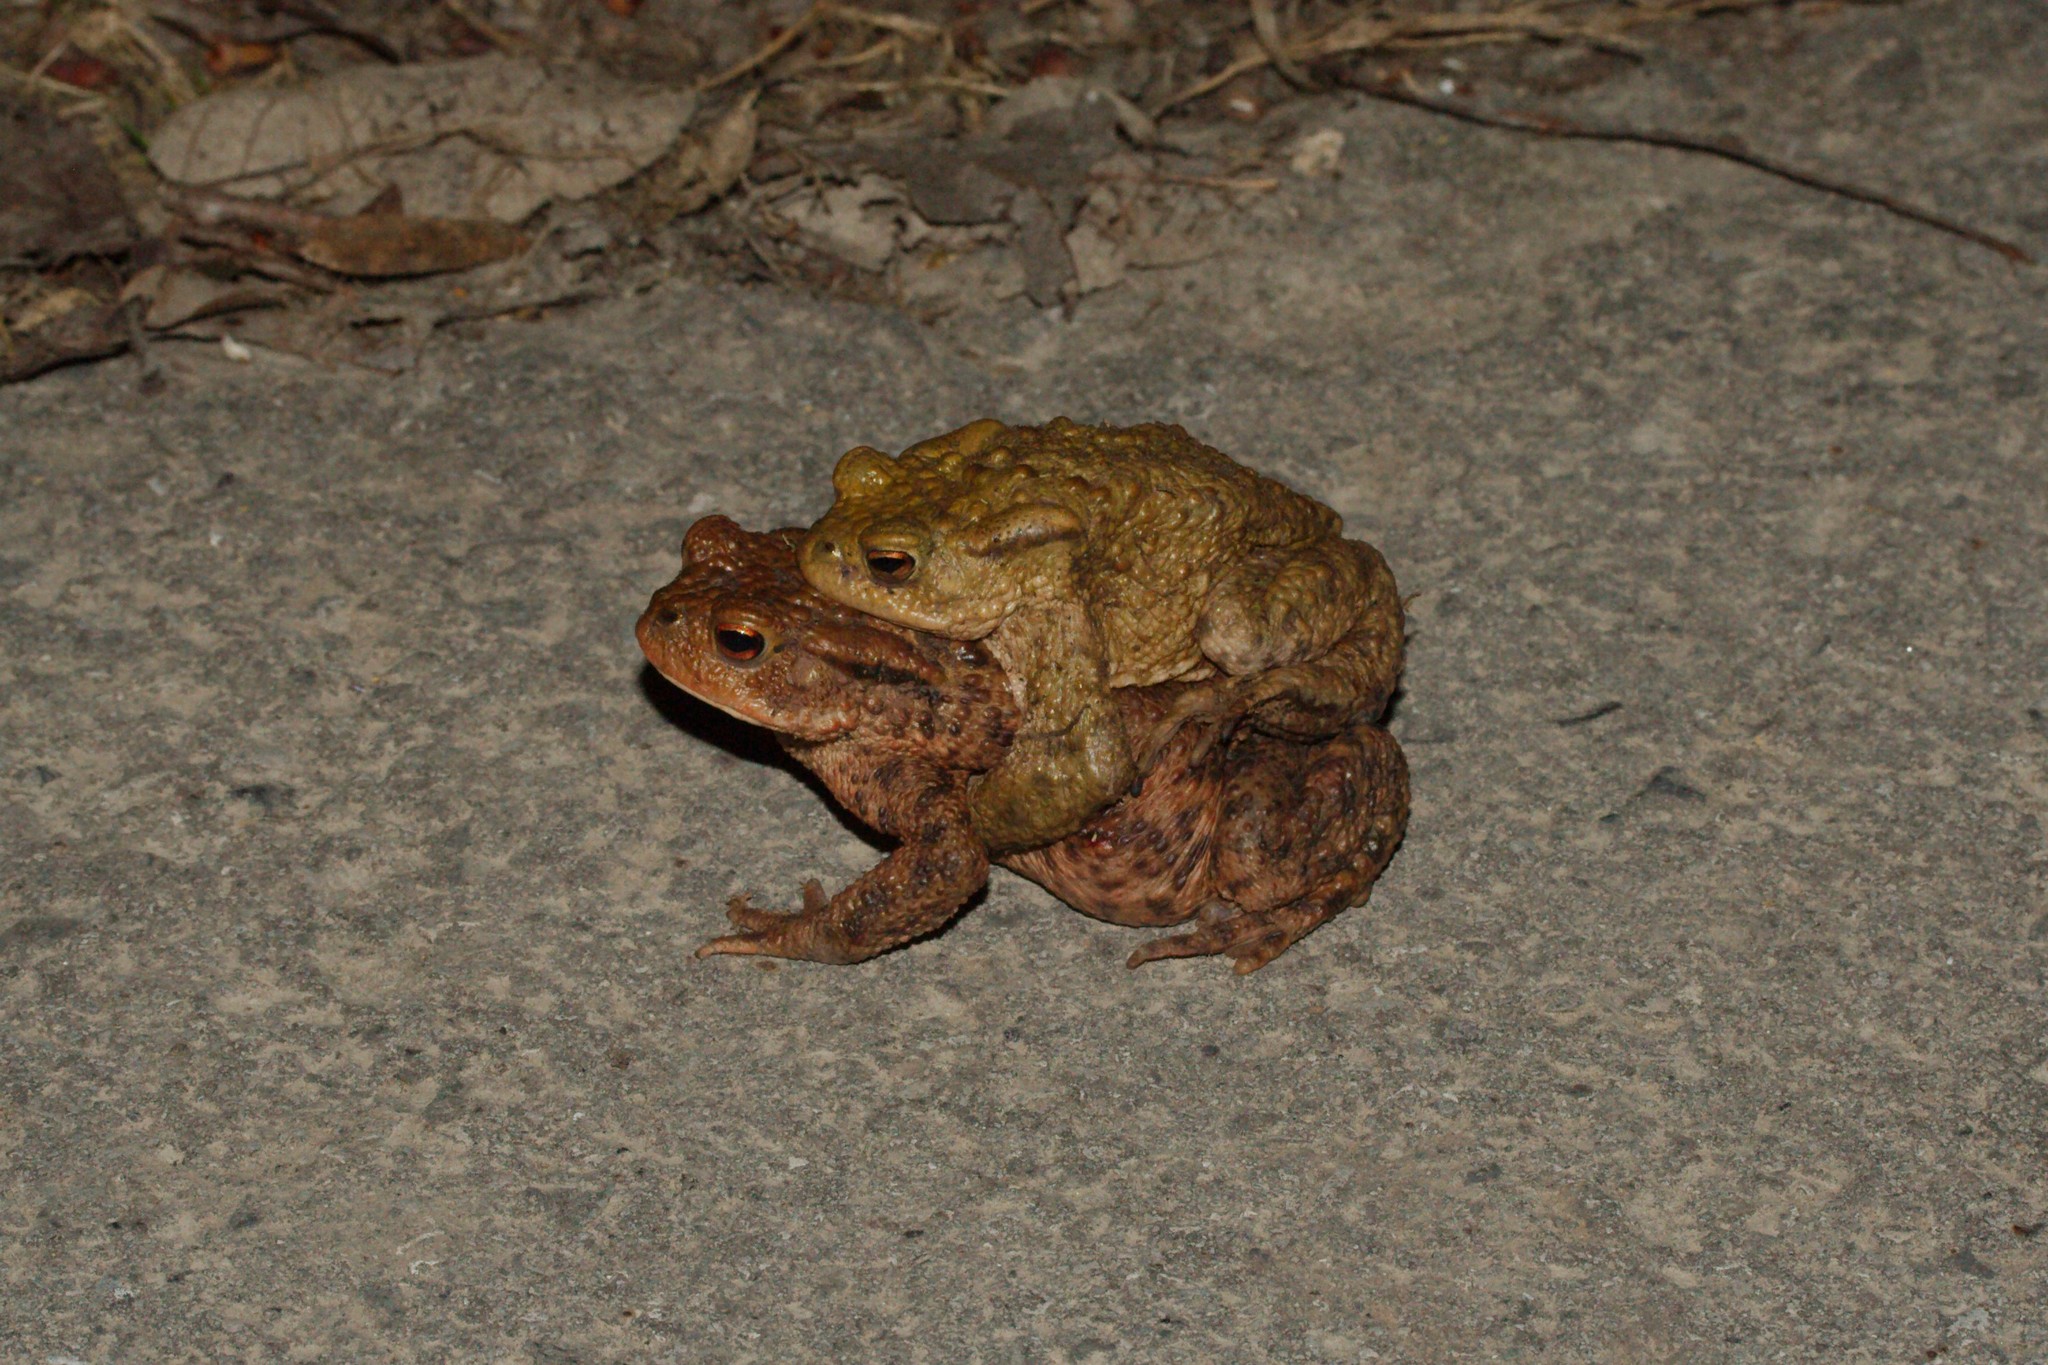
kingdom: Animalia
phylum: Chordata
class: Amphibia
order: Anura
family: Bufonidae
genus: Bufo
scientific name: Bufo bufo
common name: Common toad
